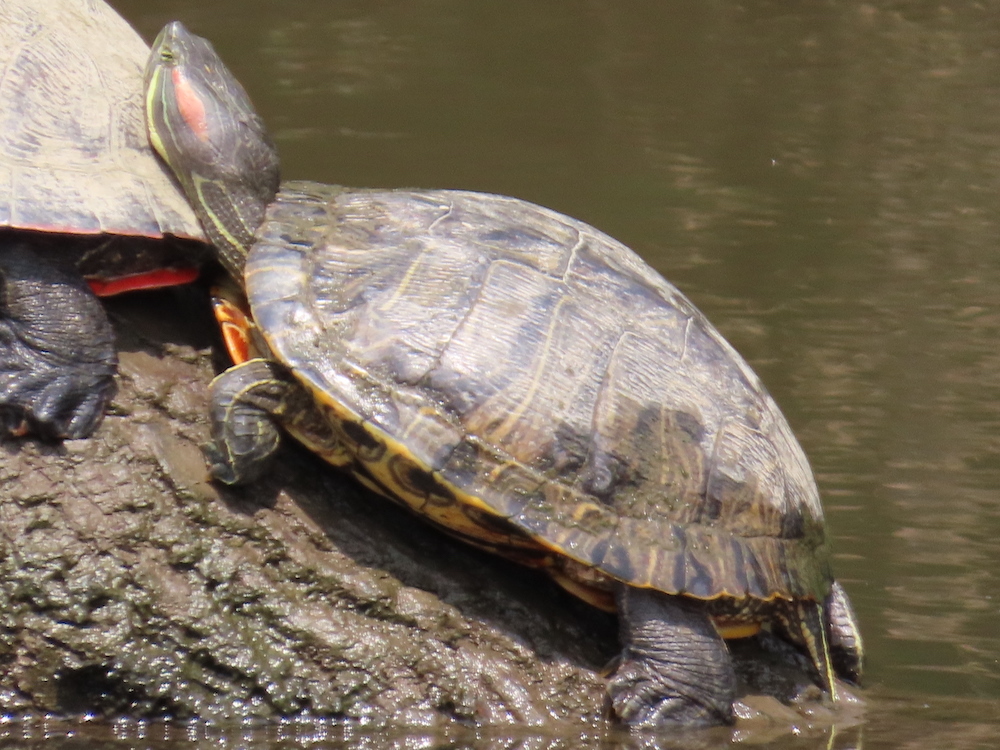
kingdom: Animalia
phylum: Chordata
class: Testudines
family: Emydidae
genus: Trachemys
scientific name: Trachemys scripta
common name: Slider
